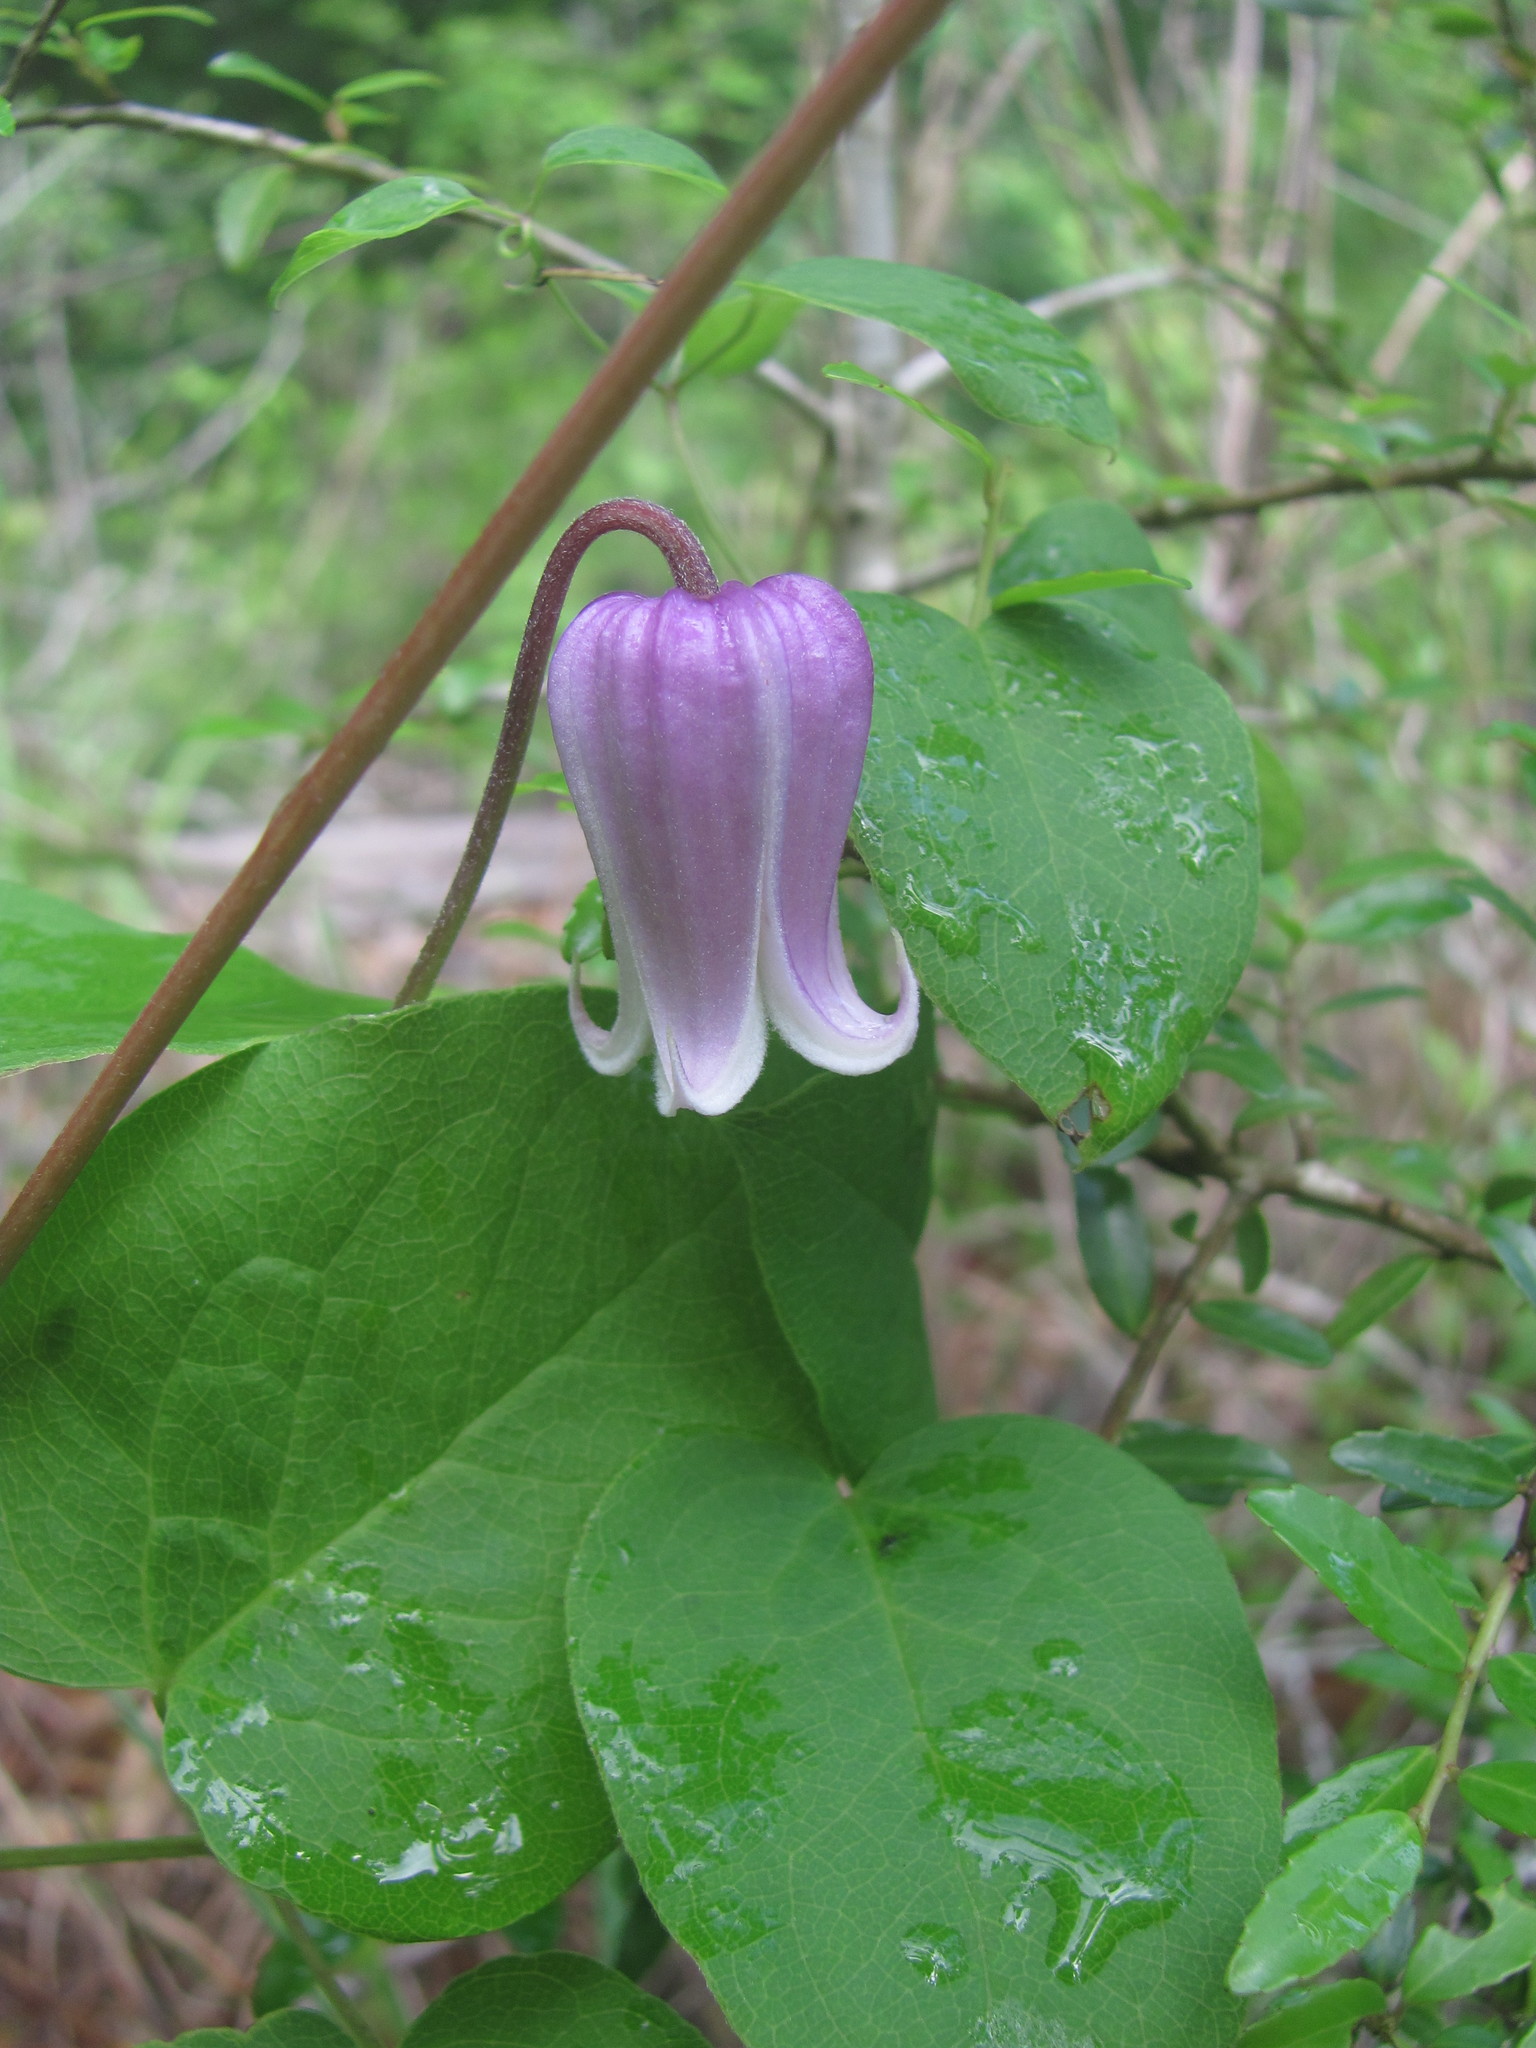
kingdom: Plantae
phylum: Tracheophyta
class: Magnoliopsida
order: Ranunculales
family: Ranunculaceae
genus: Clematis
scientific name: Clematis reticulata
